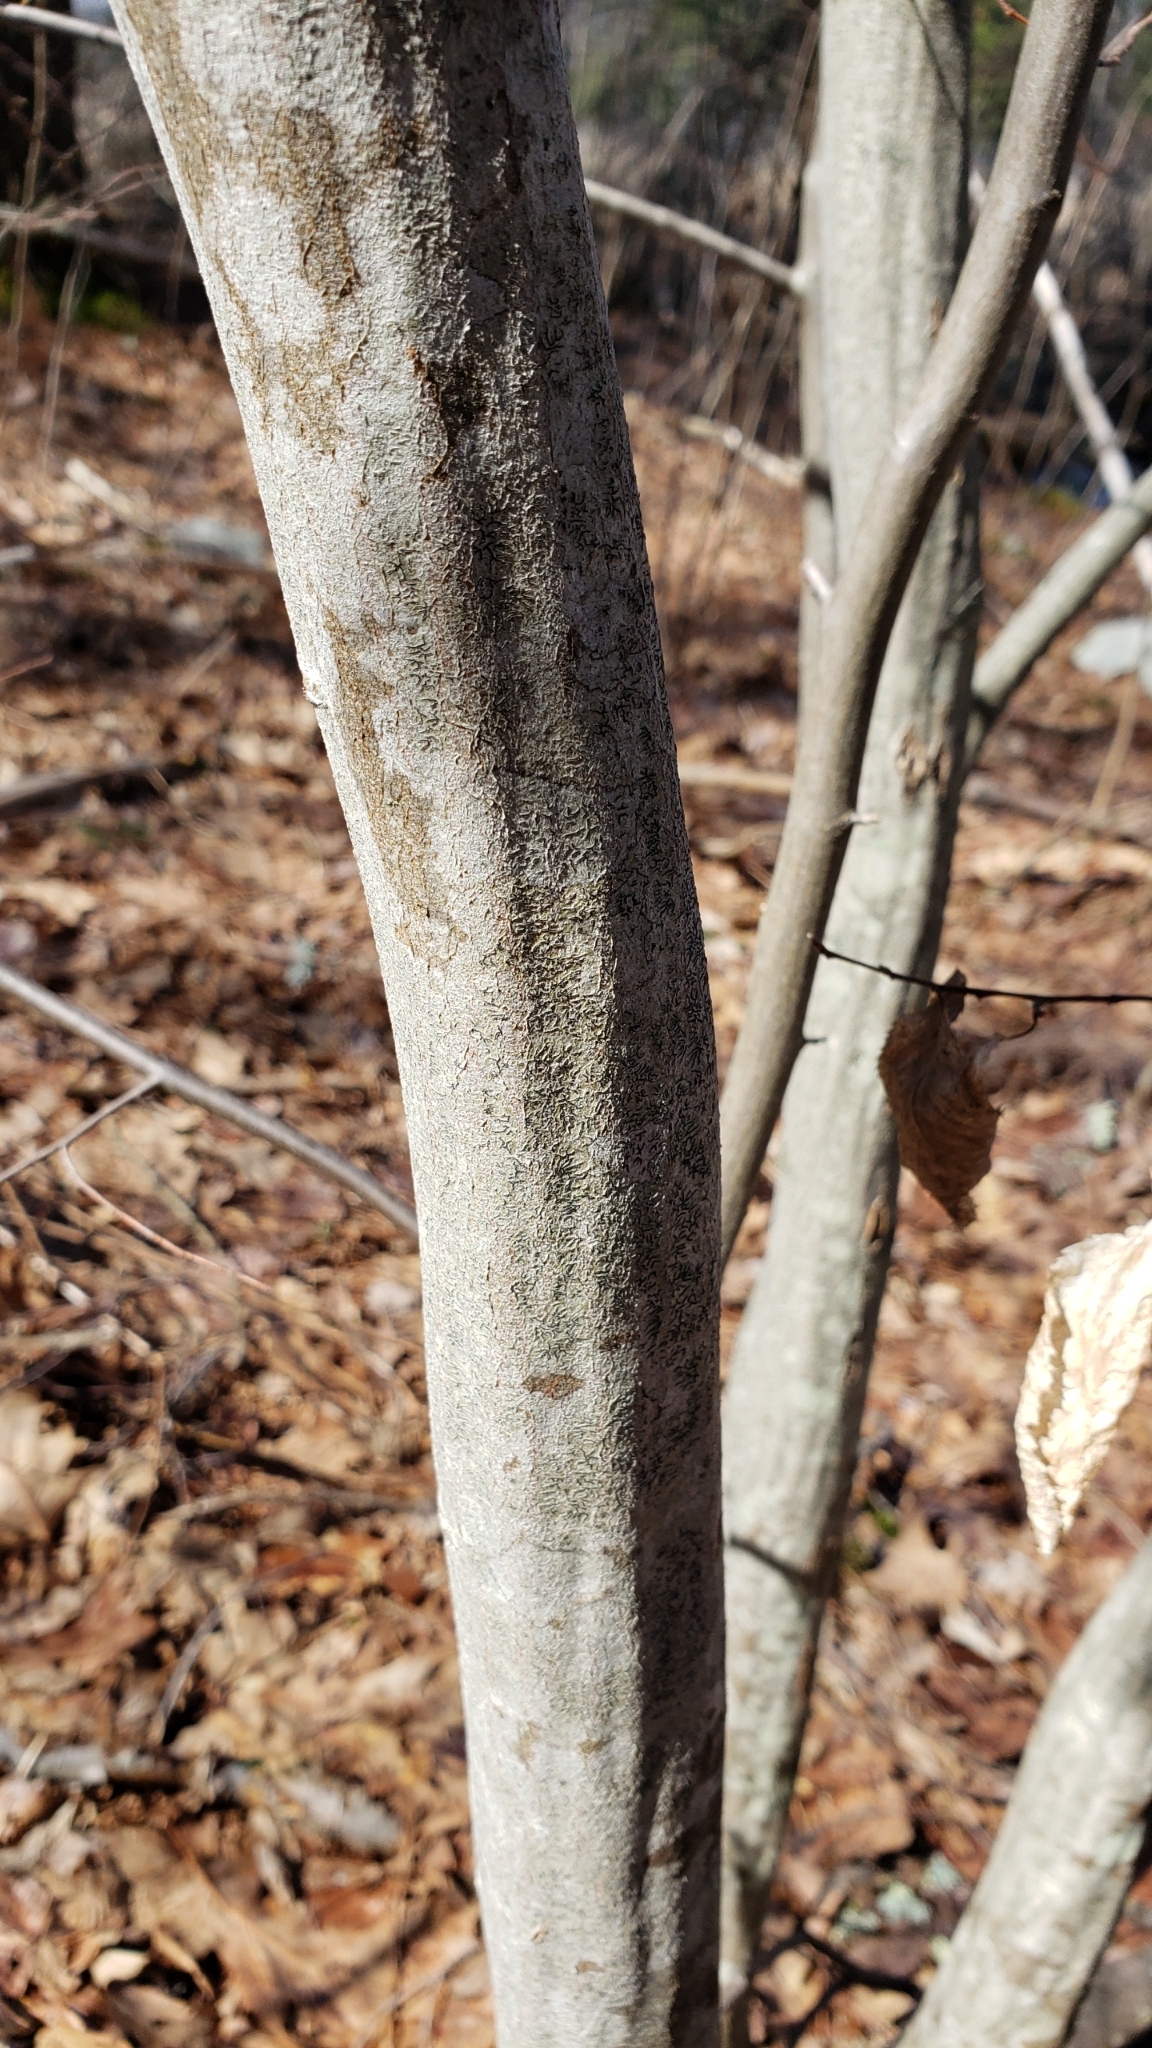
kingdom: Plantae
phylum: Tracheophyta
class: Magnoliopsida
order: Fagales
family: Betulaceae
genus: Carpinus
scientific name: Carpinus caroliniana
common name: American hornbeam
